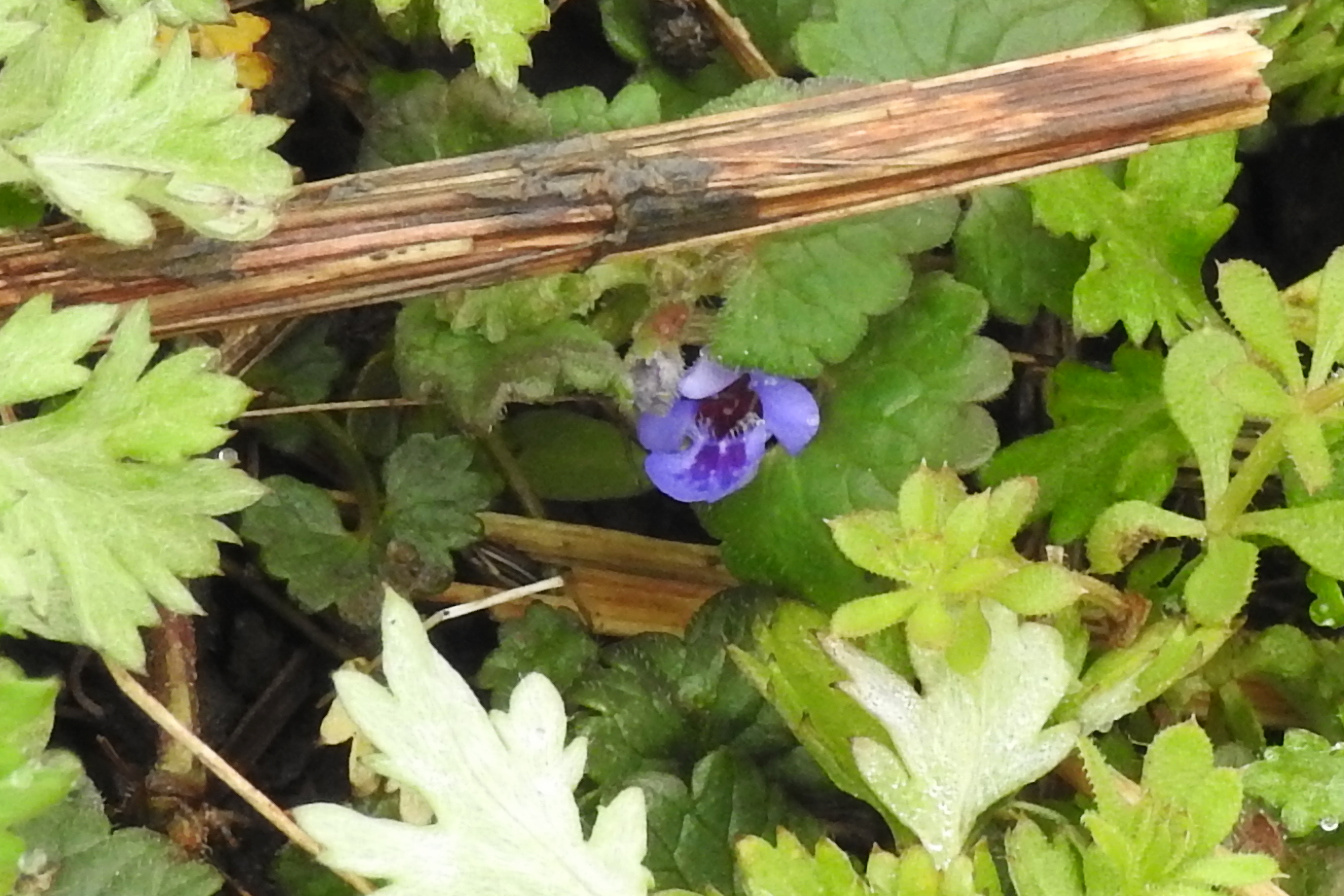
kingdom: Plantae
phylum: Tracheophyta
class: Magnoliopsida
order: Lamiales
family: Lamiaceae
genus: Glechoma
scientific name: Glechoma hederacea
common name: Ground ivy
